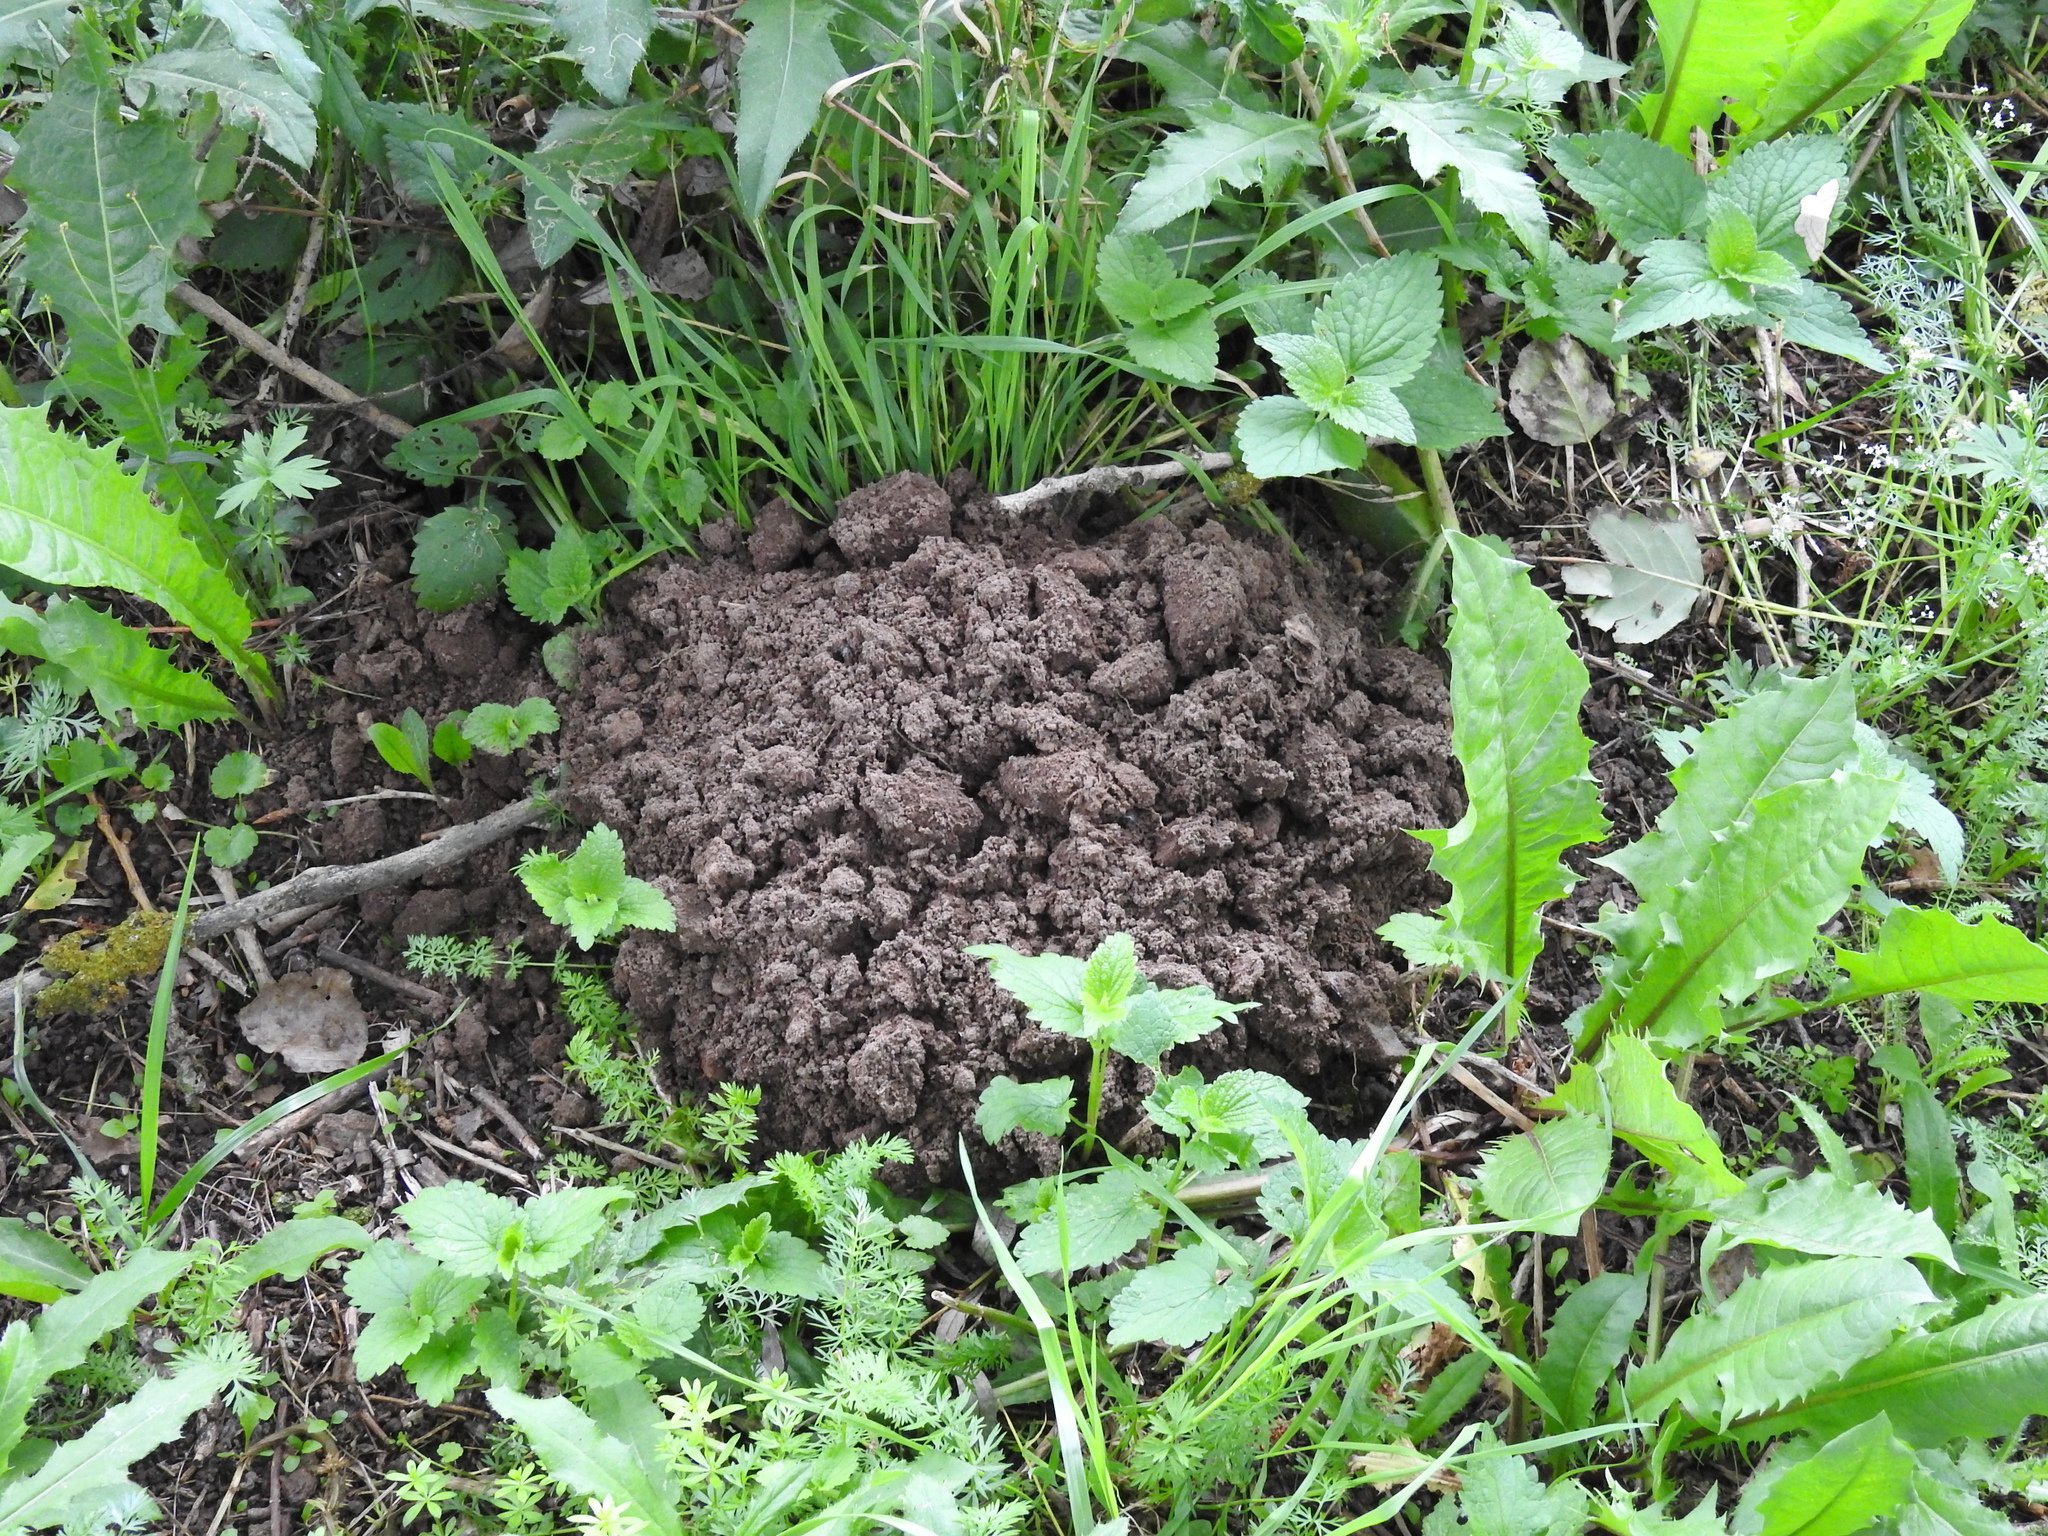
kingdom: Animalia
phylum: Chordata
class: Mammalia
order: Soricomorpha
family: Talpidae
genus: Talpa
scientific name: Talpa europaea
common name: European mole
